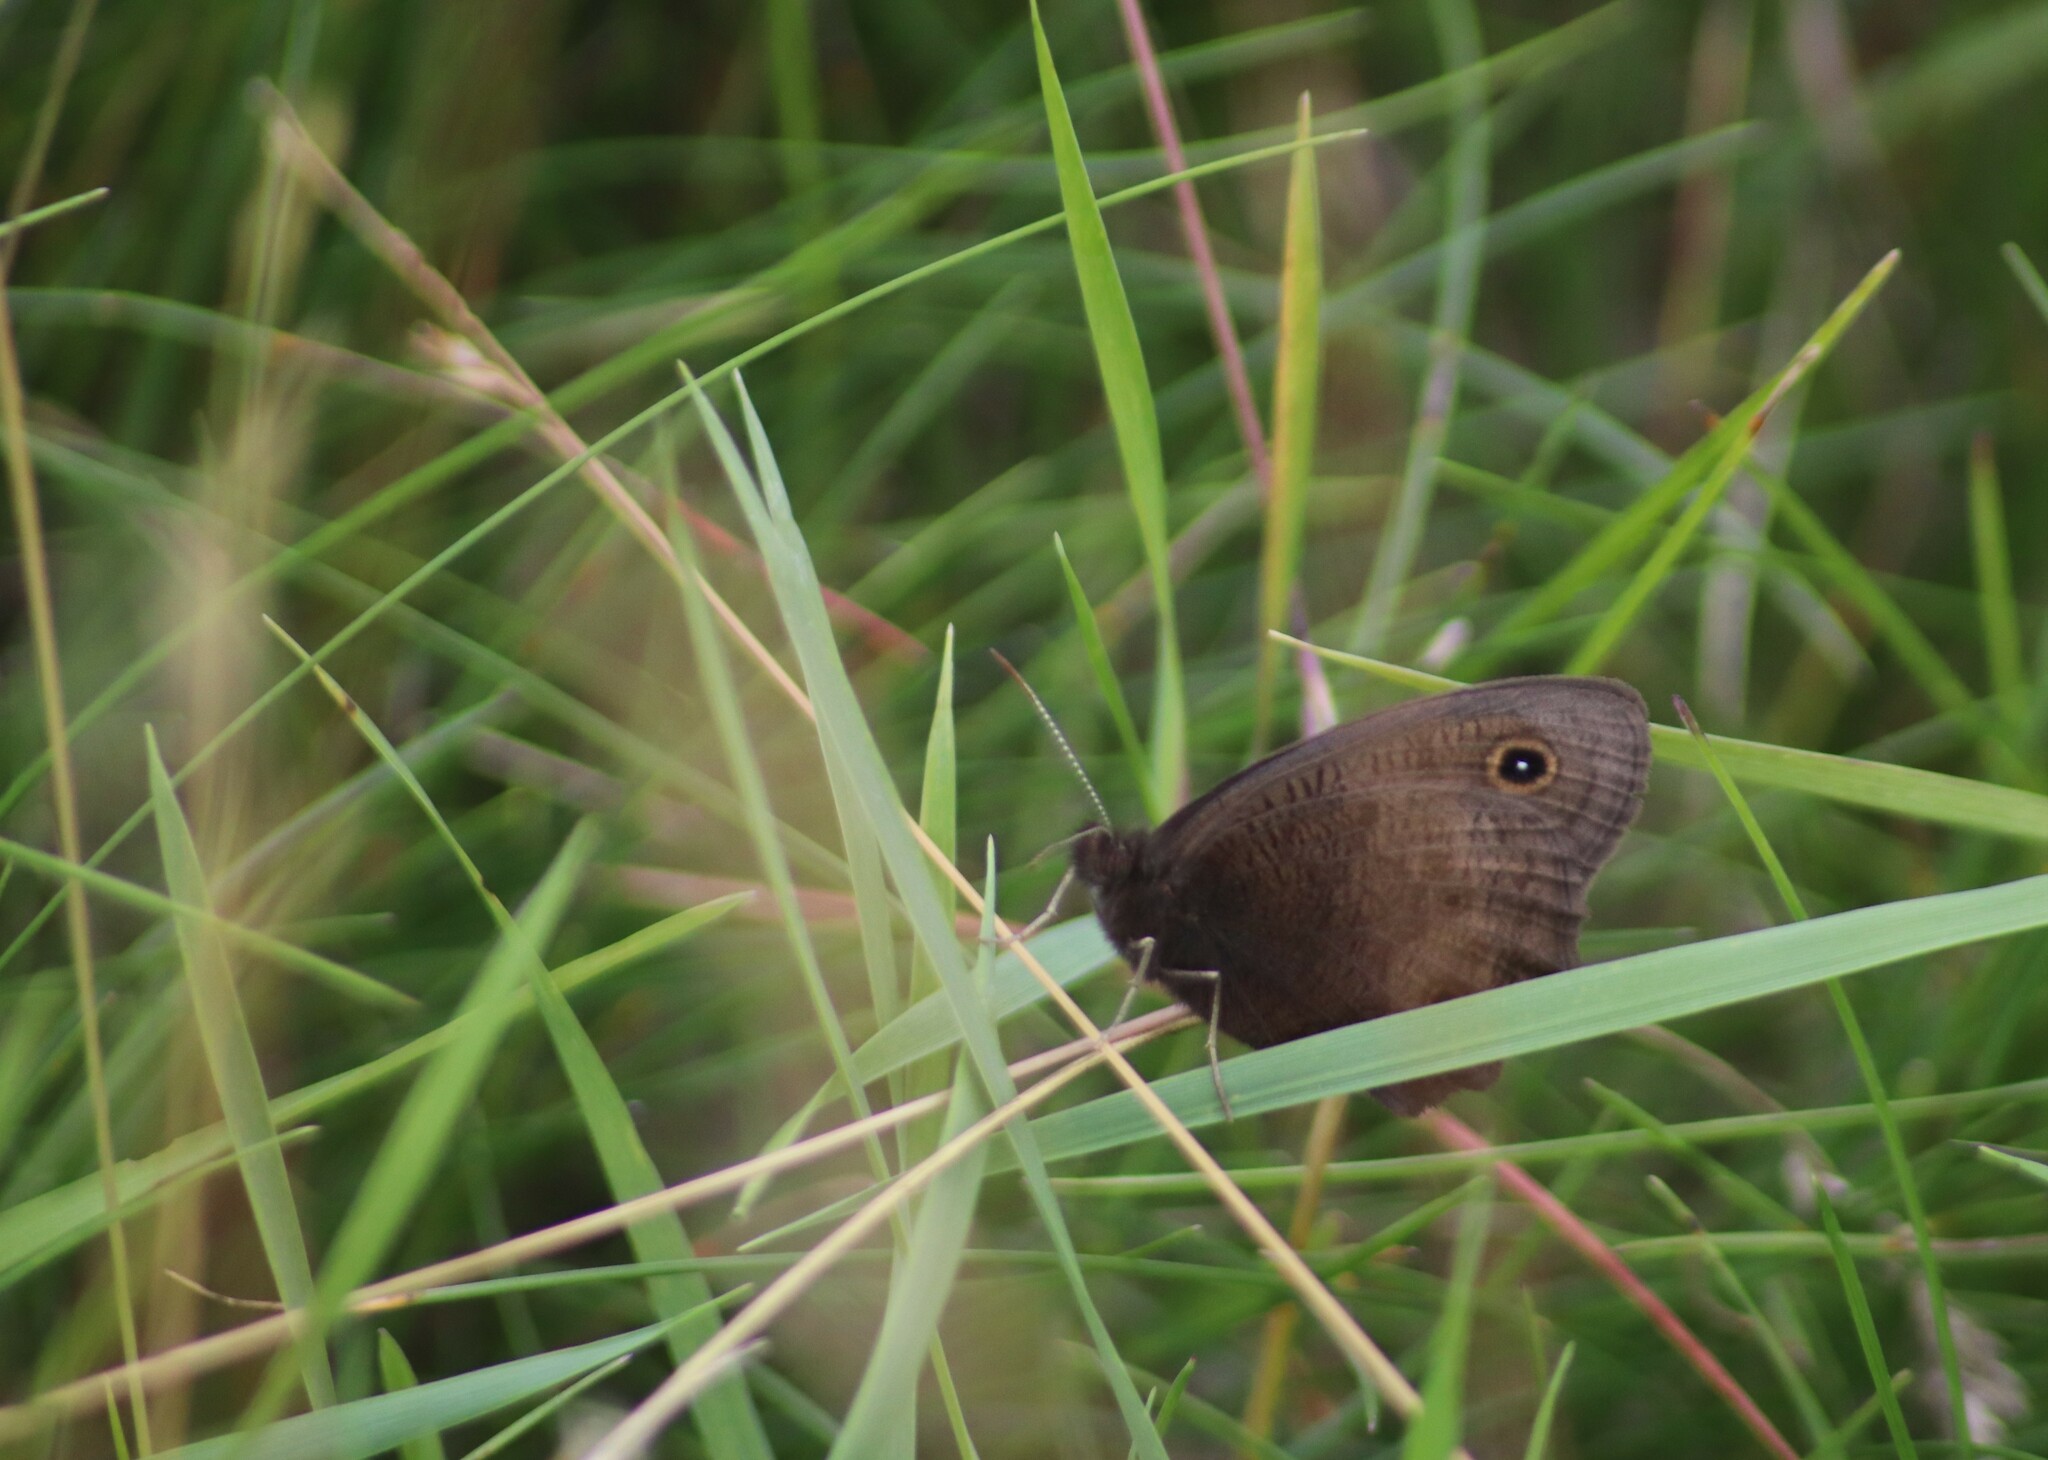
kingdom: Animalia
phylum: Arthropoda
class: Insecta
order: Lepidoptera
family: Nymphalidae
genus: Cercyonis
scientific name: Cercyonis pegala
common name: Common wood-nymph
